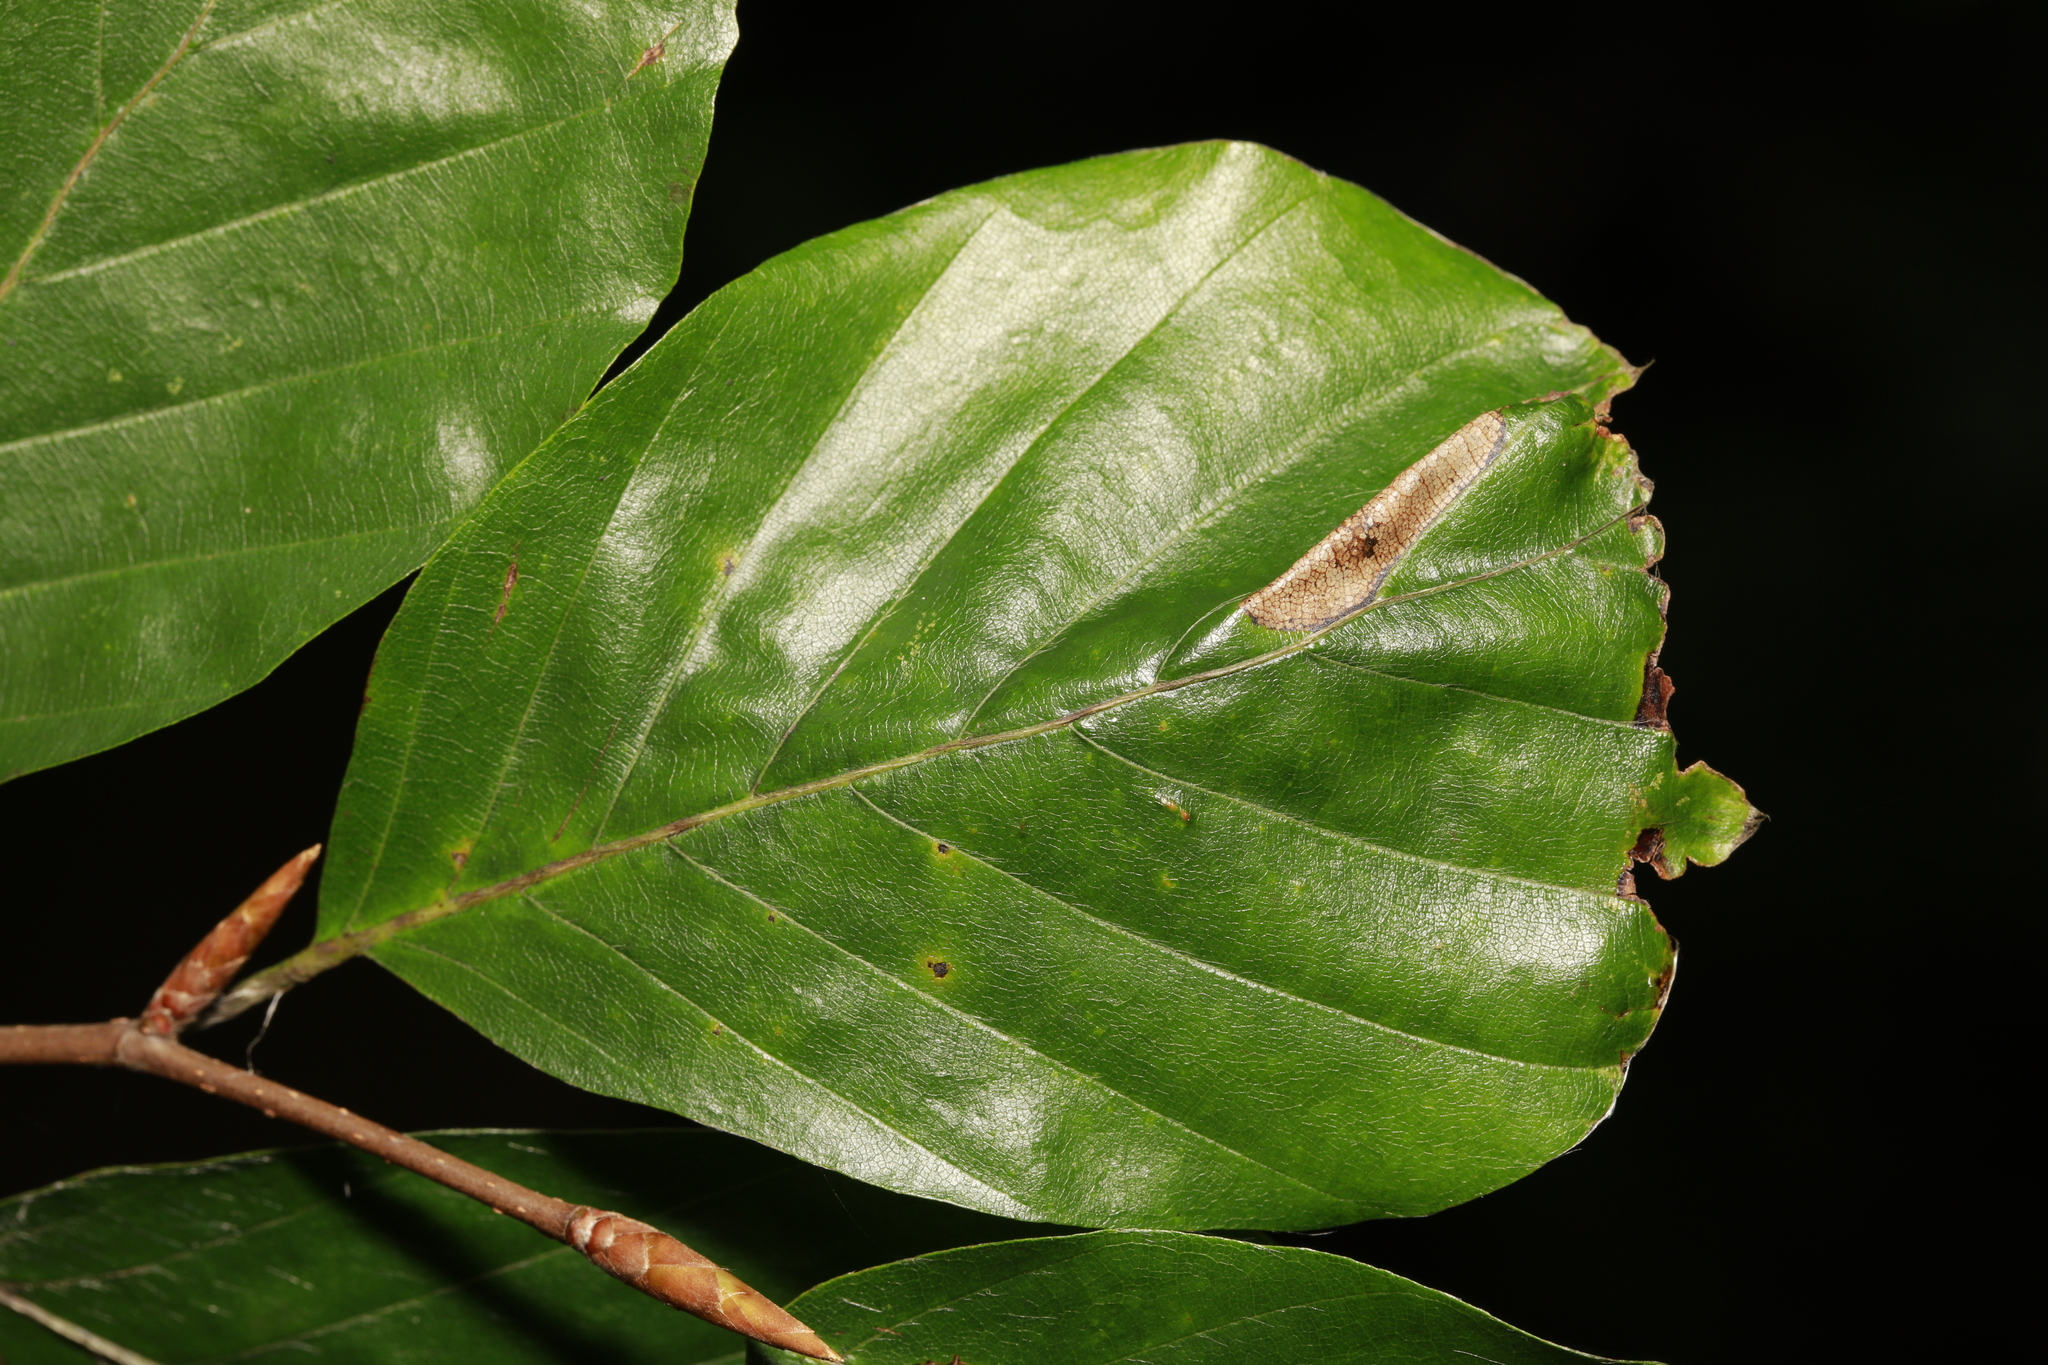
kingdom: Animalia
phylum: Arthropoda
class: Insecta
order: Lepidoptera
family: Gracillariidae
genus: Phyllonorycter
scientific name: Phyllonorycter maestingella
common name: Beech midget
